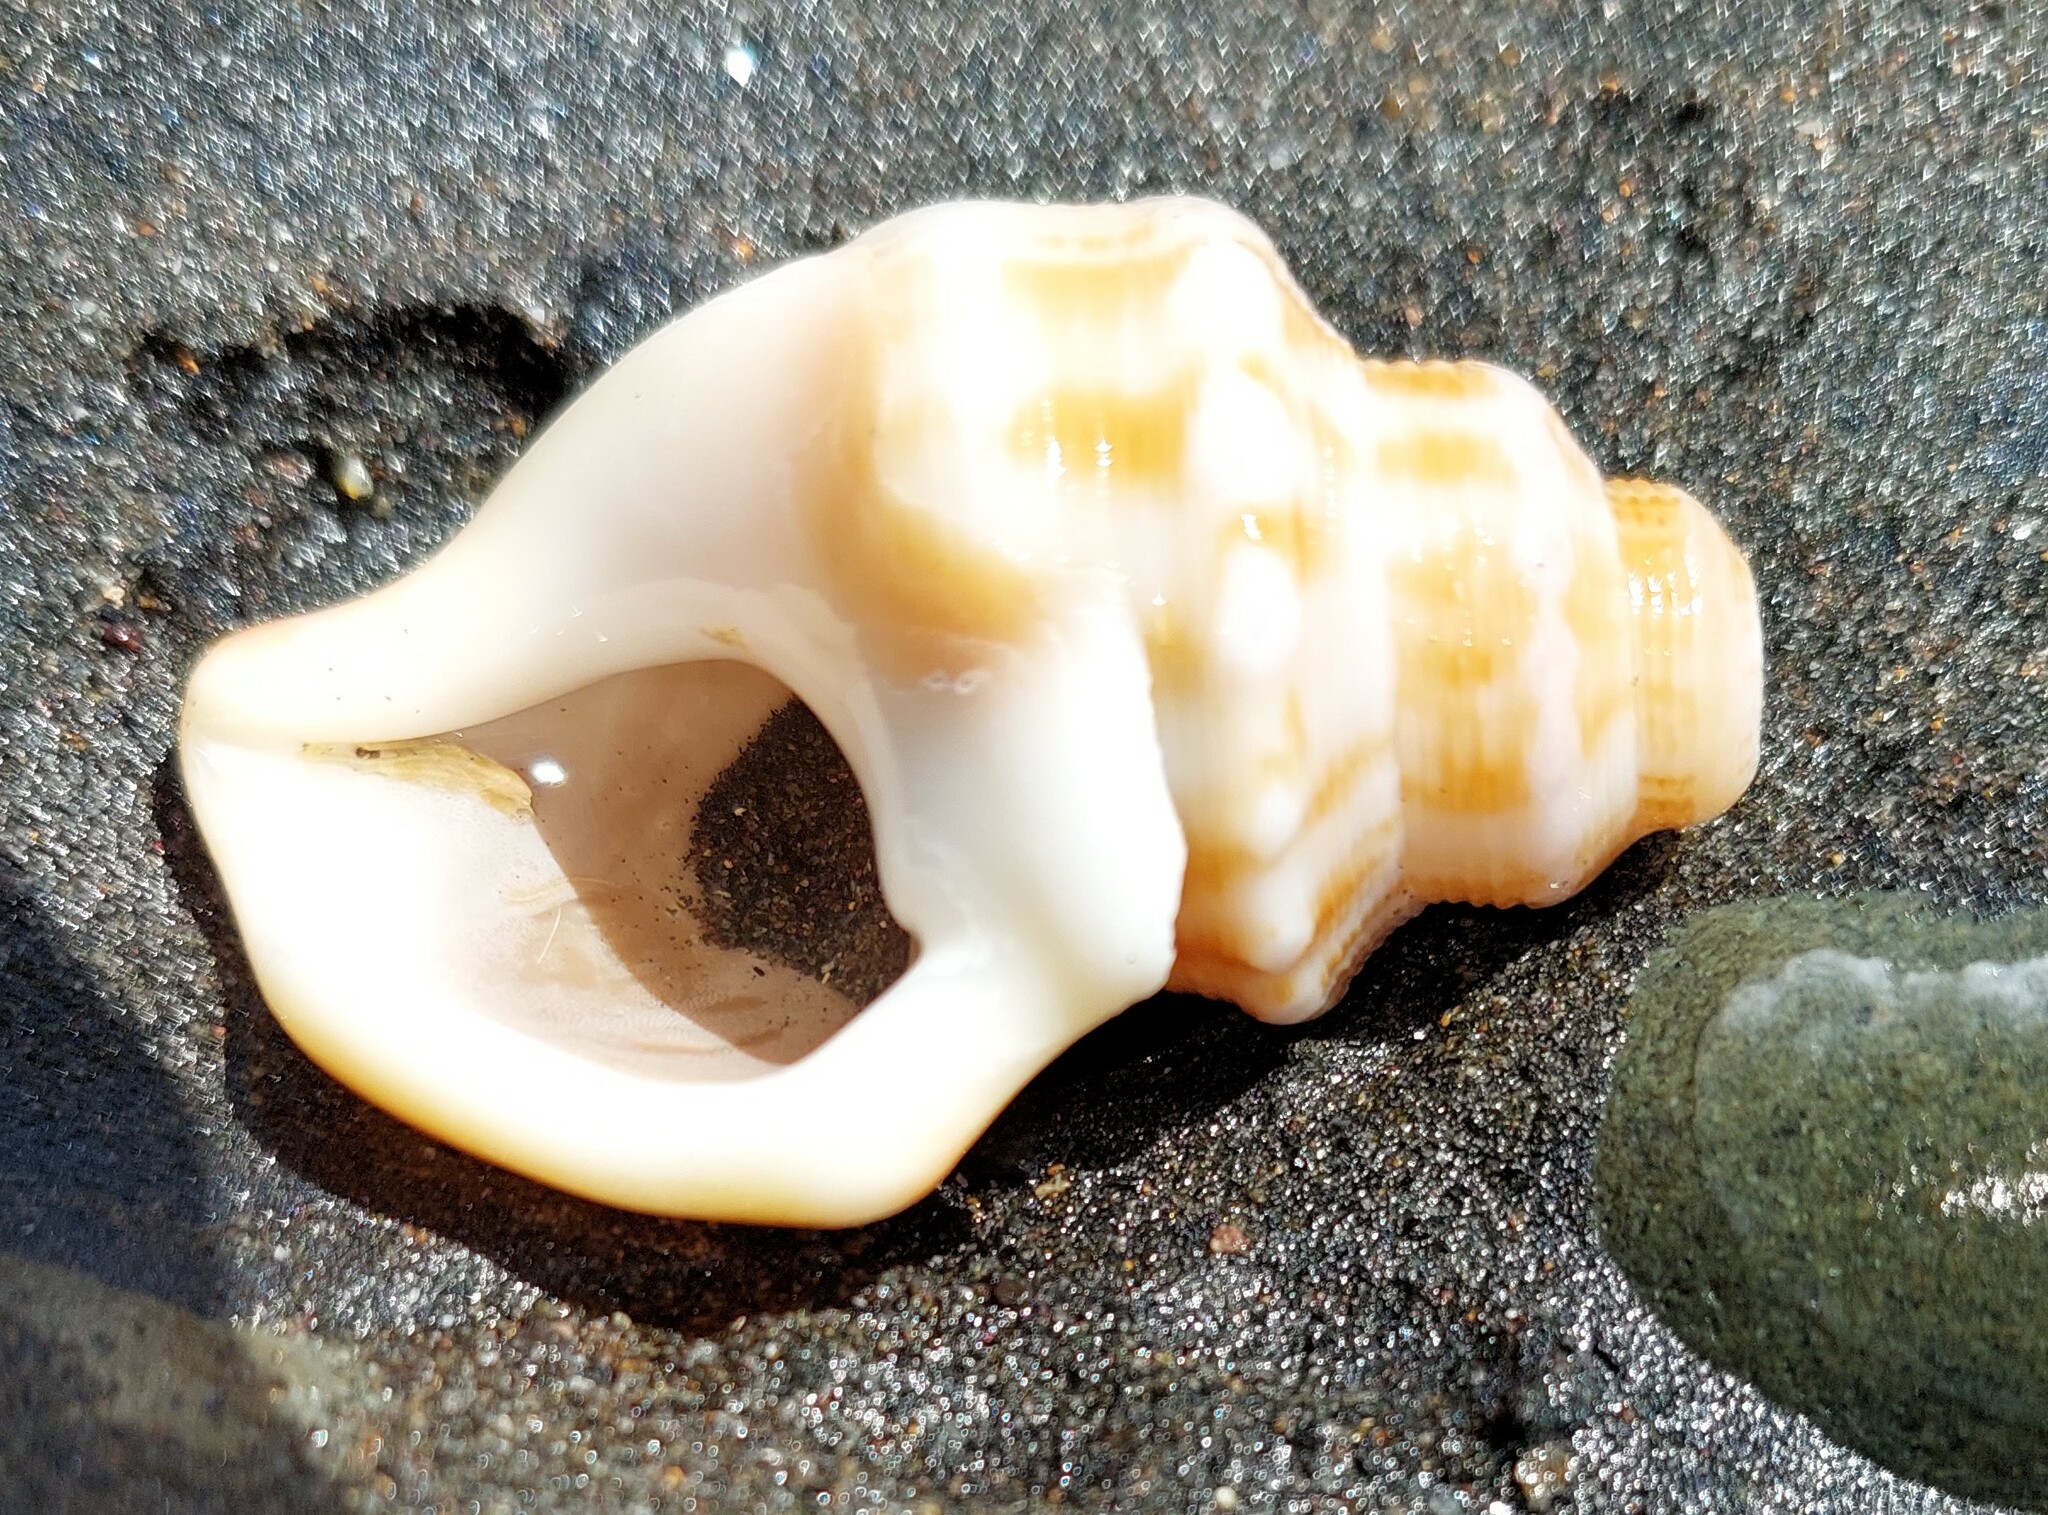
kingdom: Animalia
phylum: Mollusca
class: Gastropoda
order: Littorinimorpha
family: Struthiolariidae
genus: Struthiolaria
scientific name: Struthiolaria papulosa
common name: Large ostrich foot
